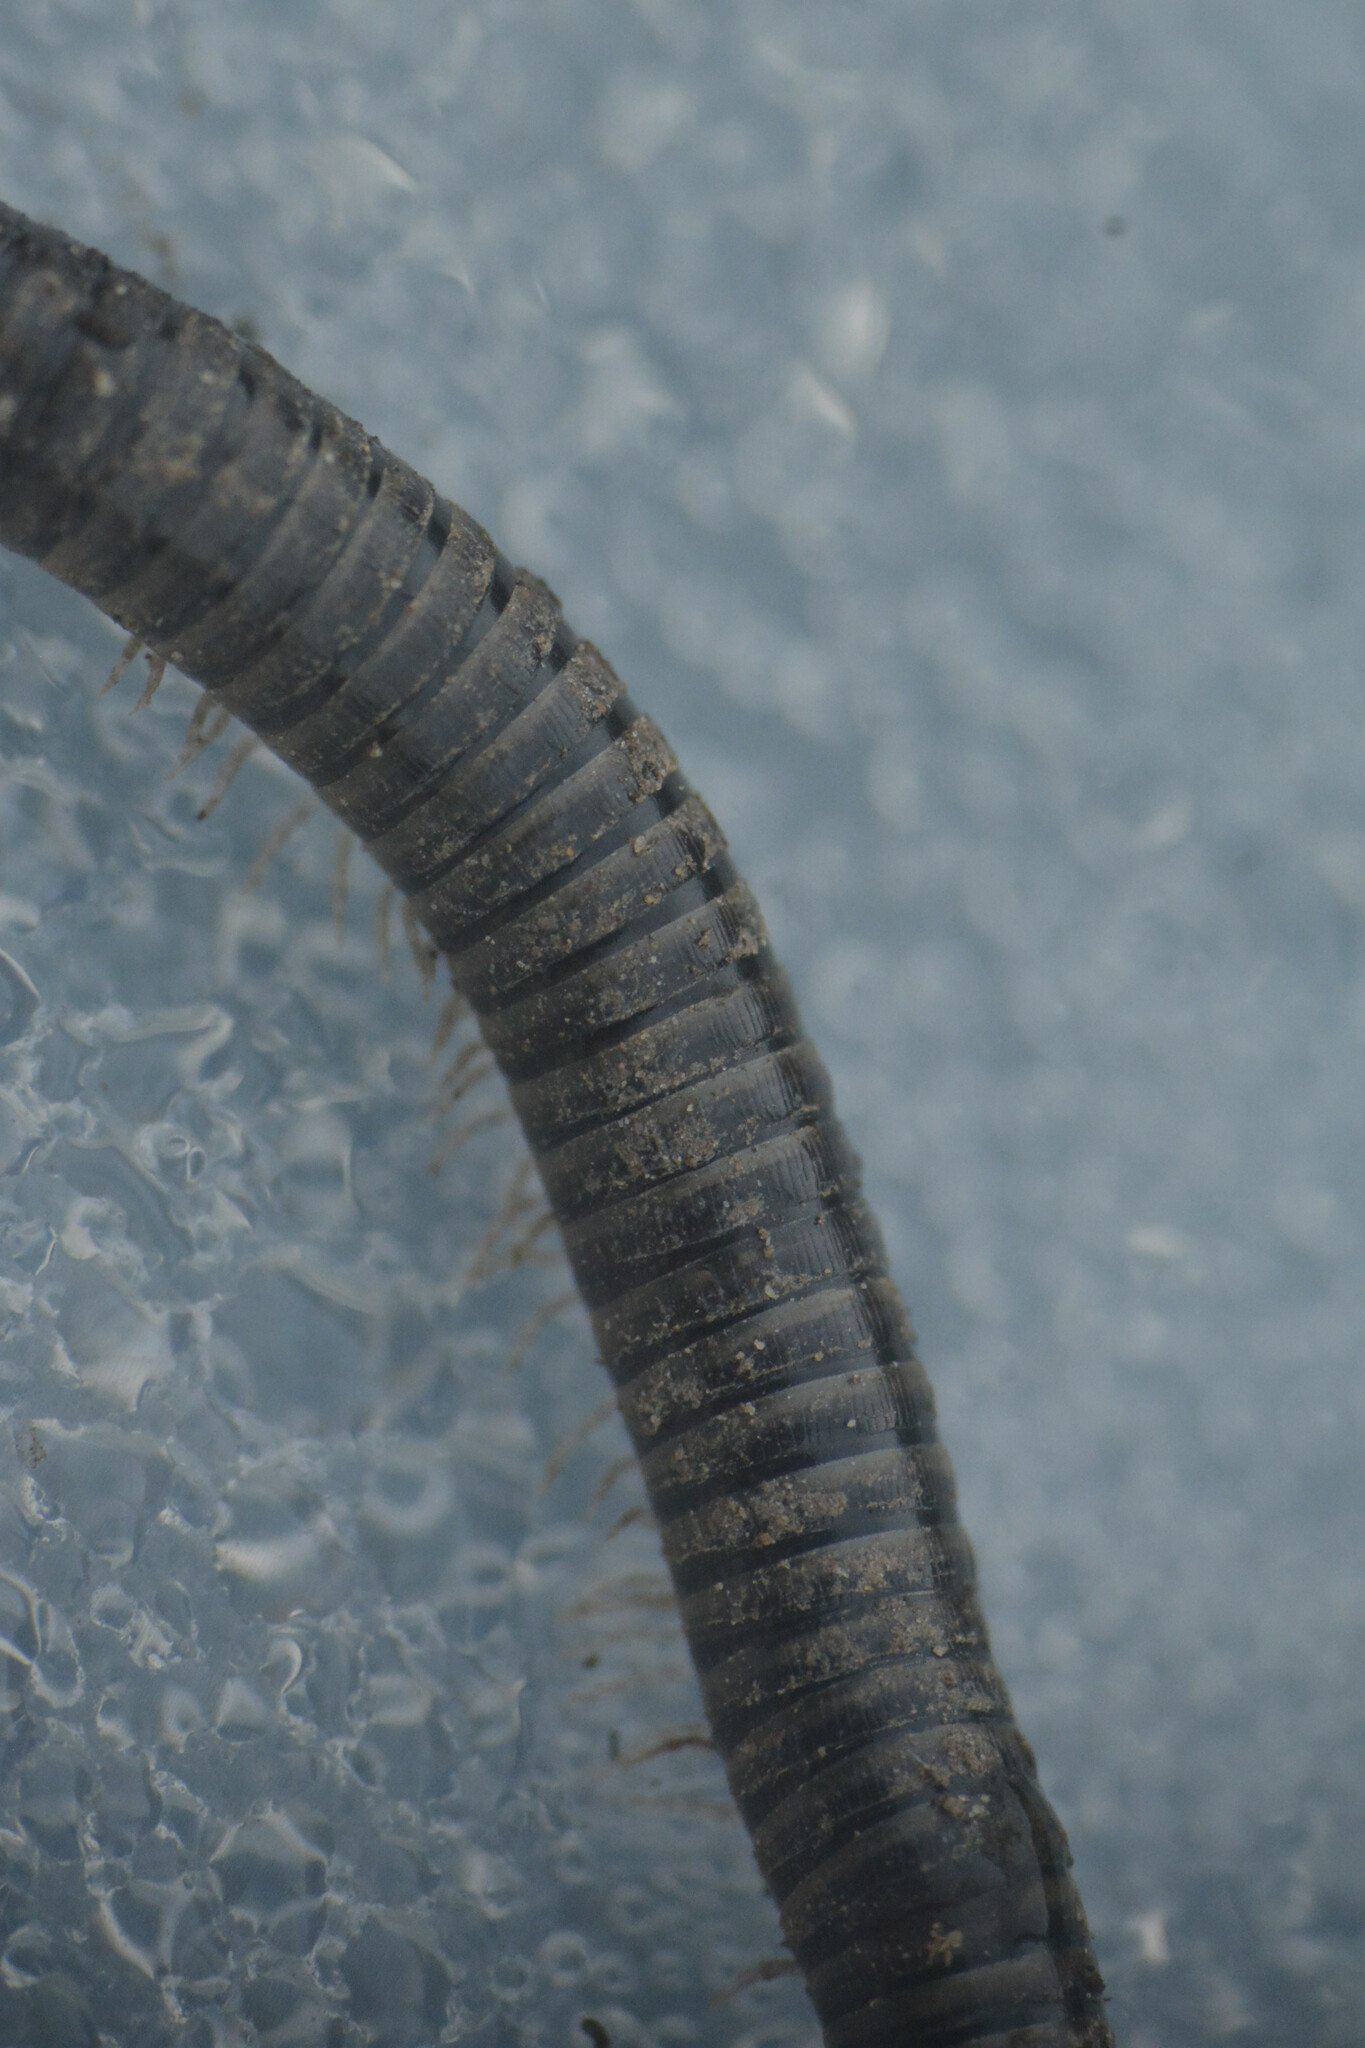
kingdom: Animalia
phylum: Arthropoda
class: Diplopoda
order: Julida
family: Julidae
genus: Cylindroiulus
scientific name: Cylindroiulus caeruleocinctus
